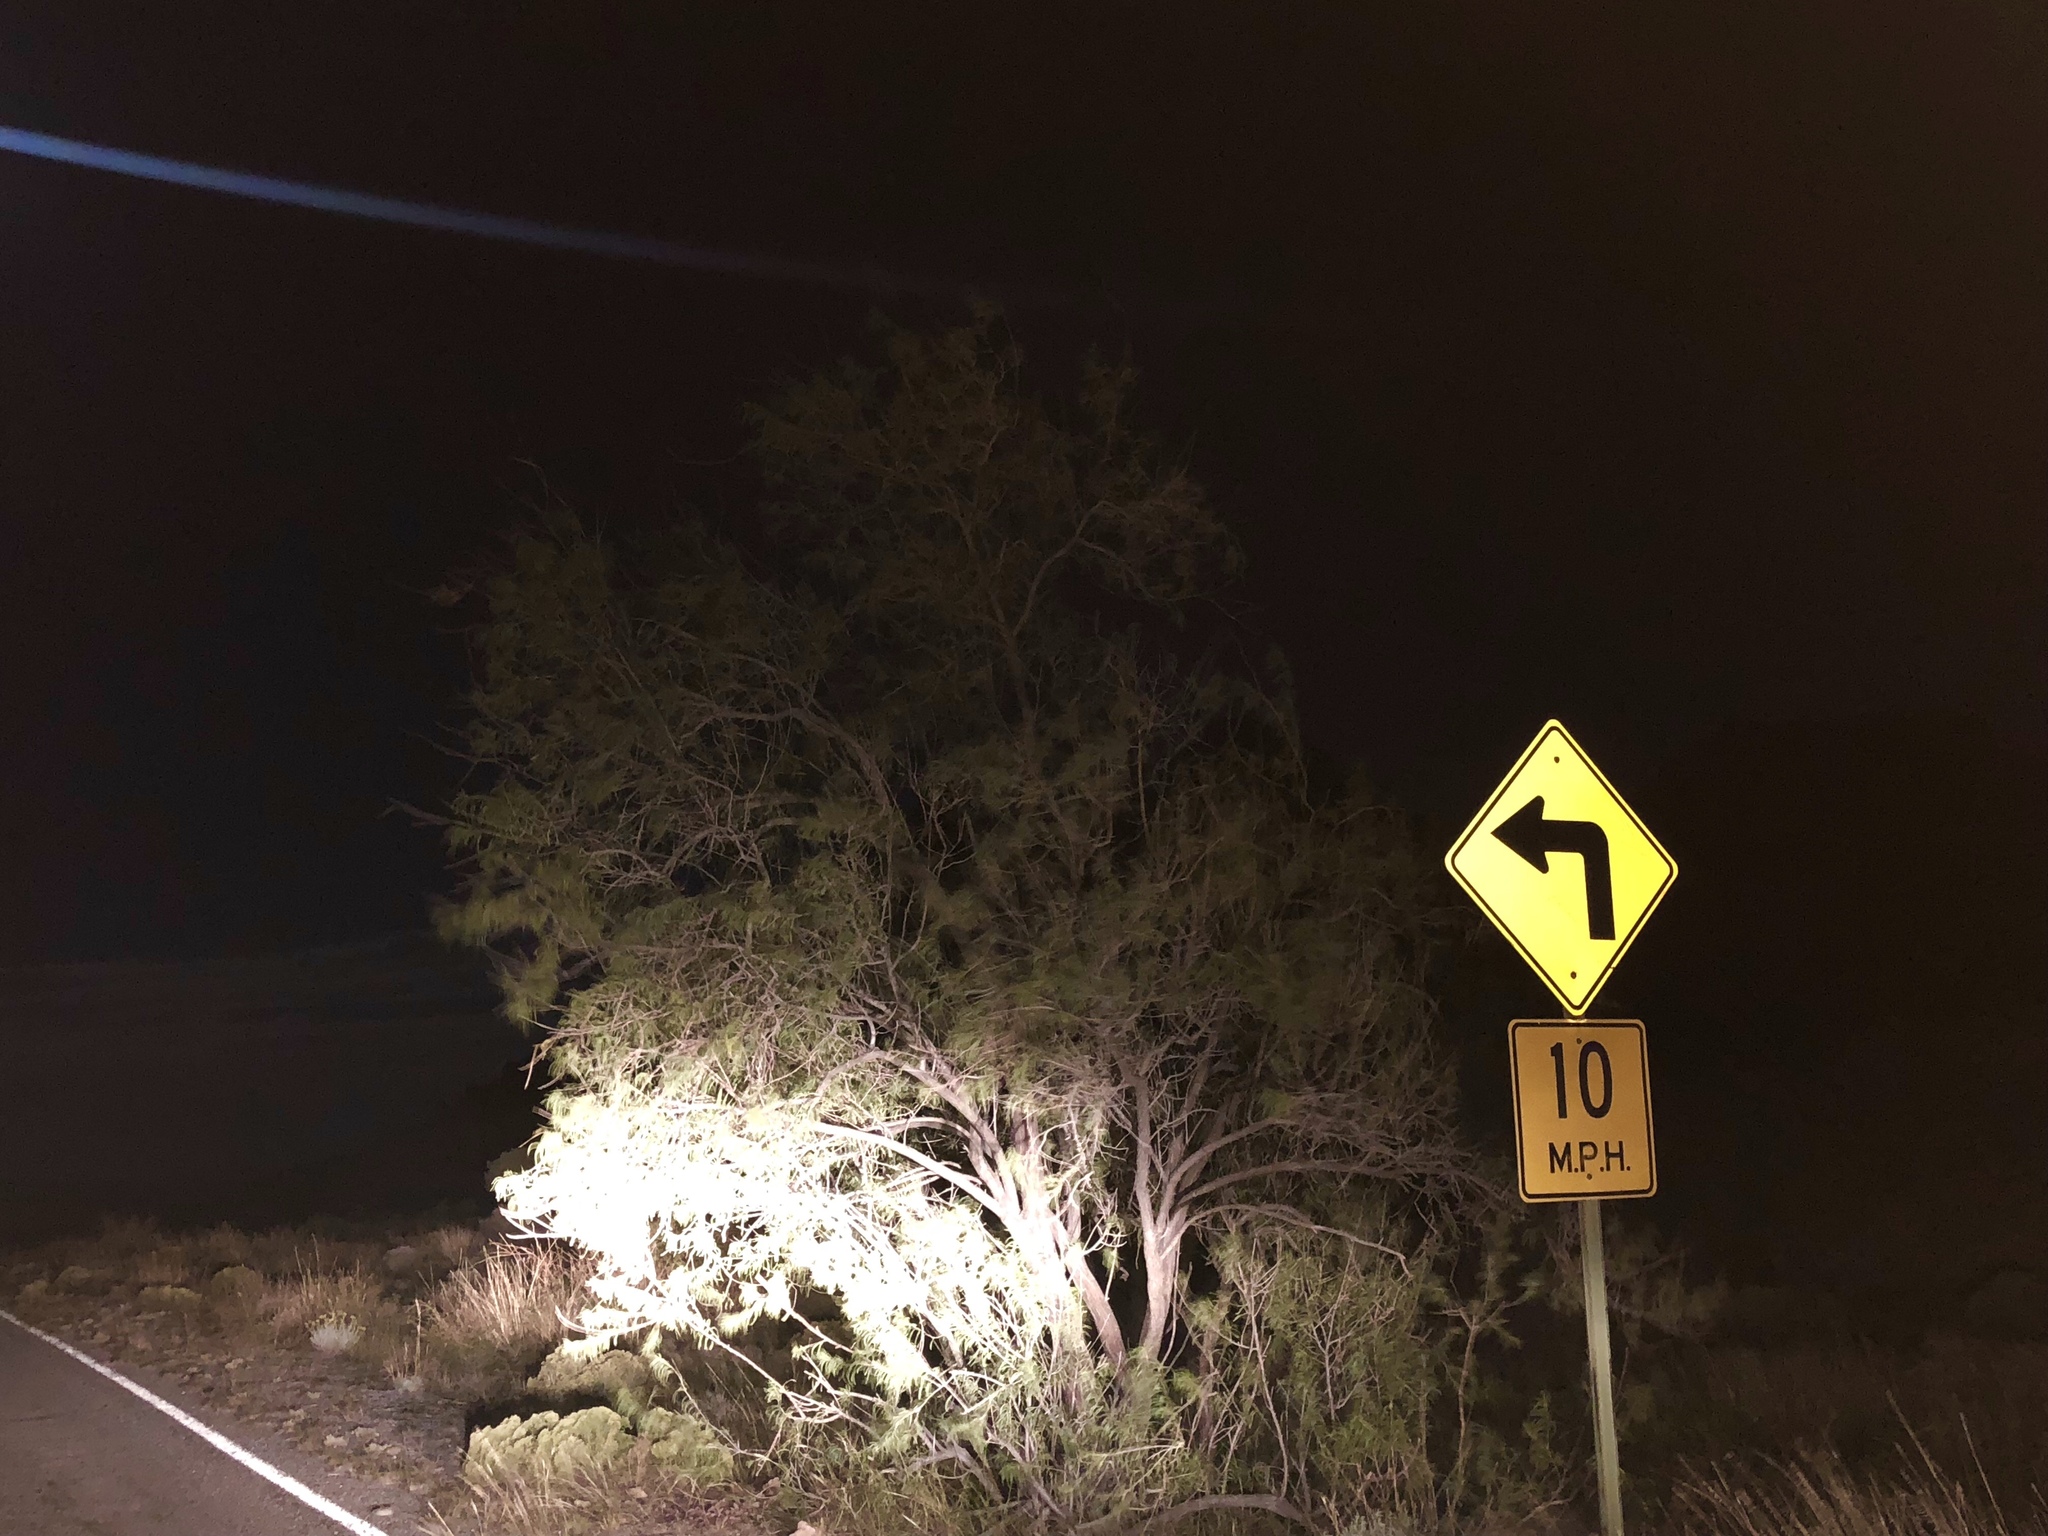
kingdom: Plantae
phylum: Tracheophyta
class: Magnoliopsida
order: Lamiales
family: Bignoniaceae
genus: Chilopsis
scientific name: Chilopsis linearis
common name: Desert-willow
